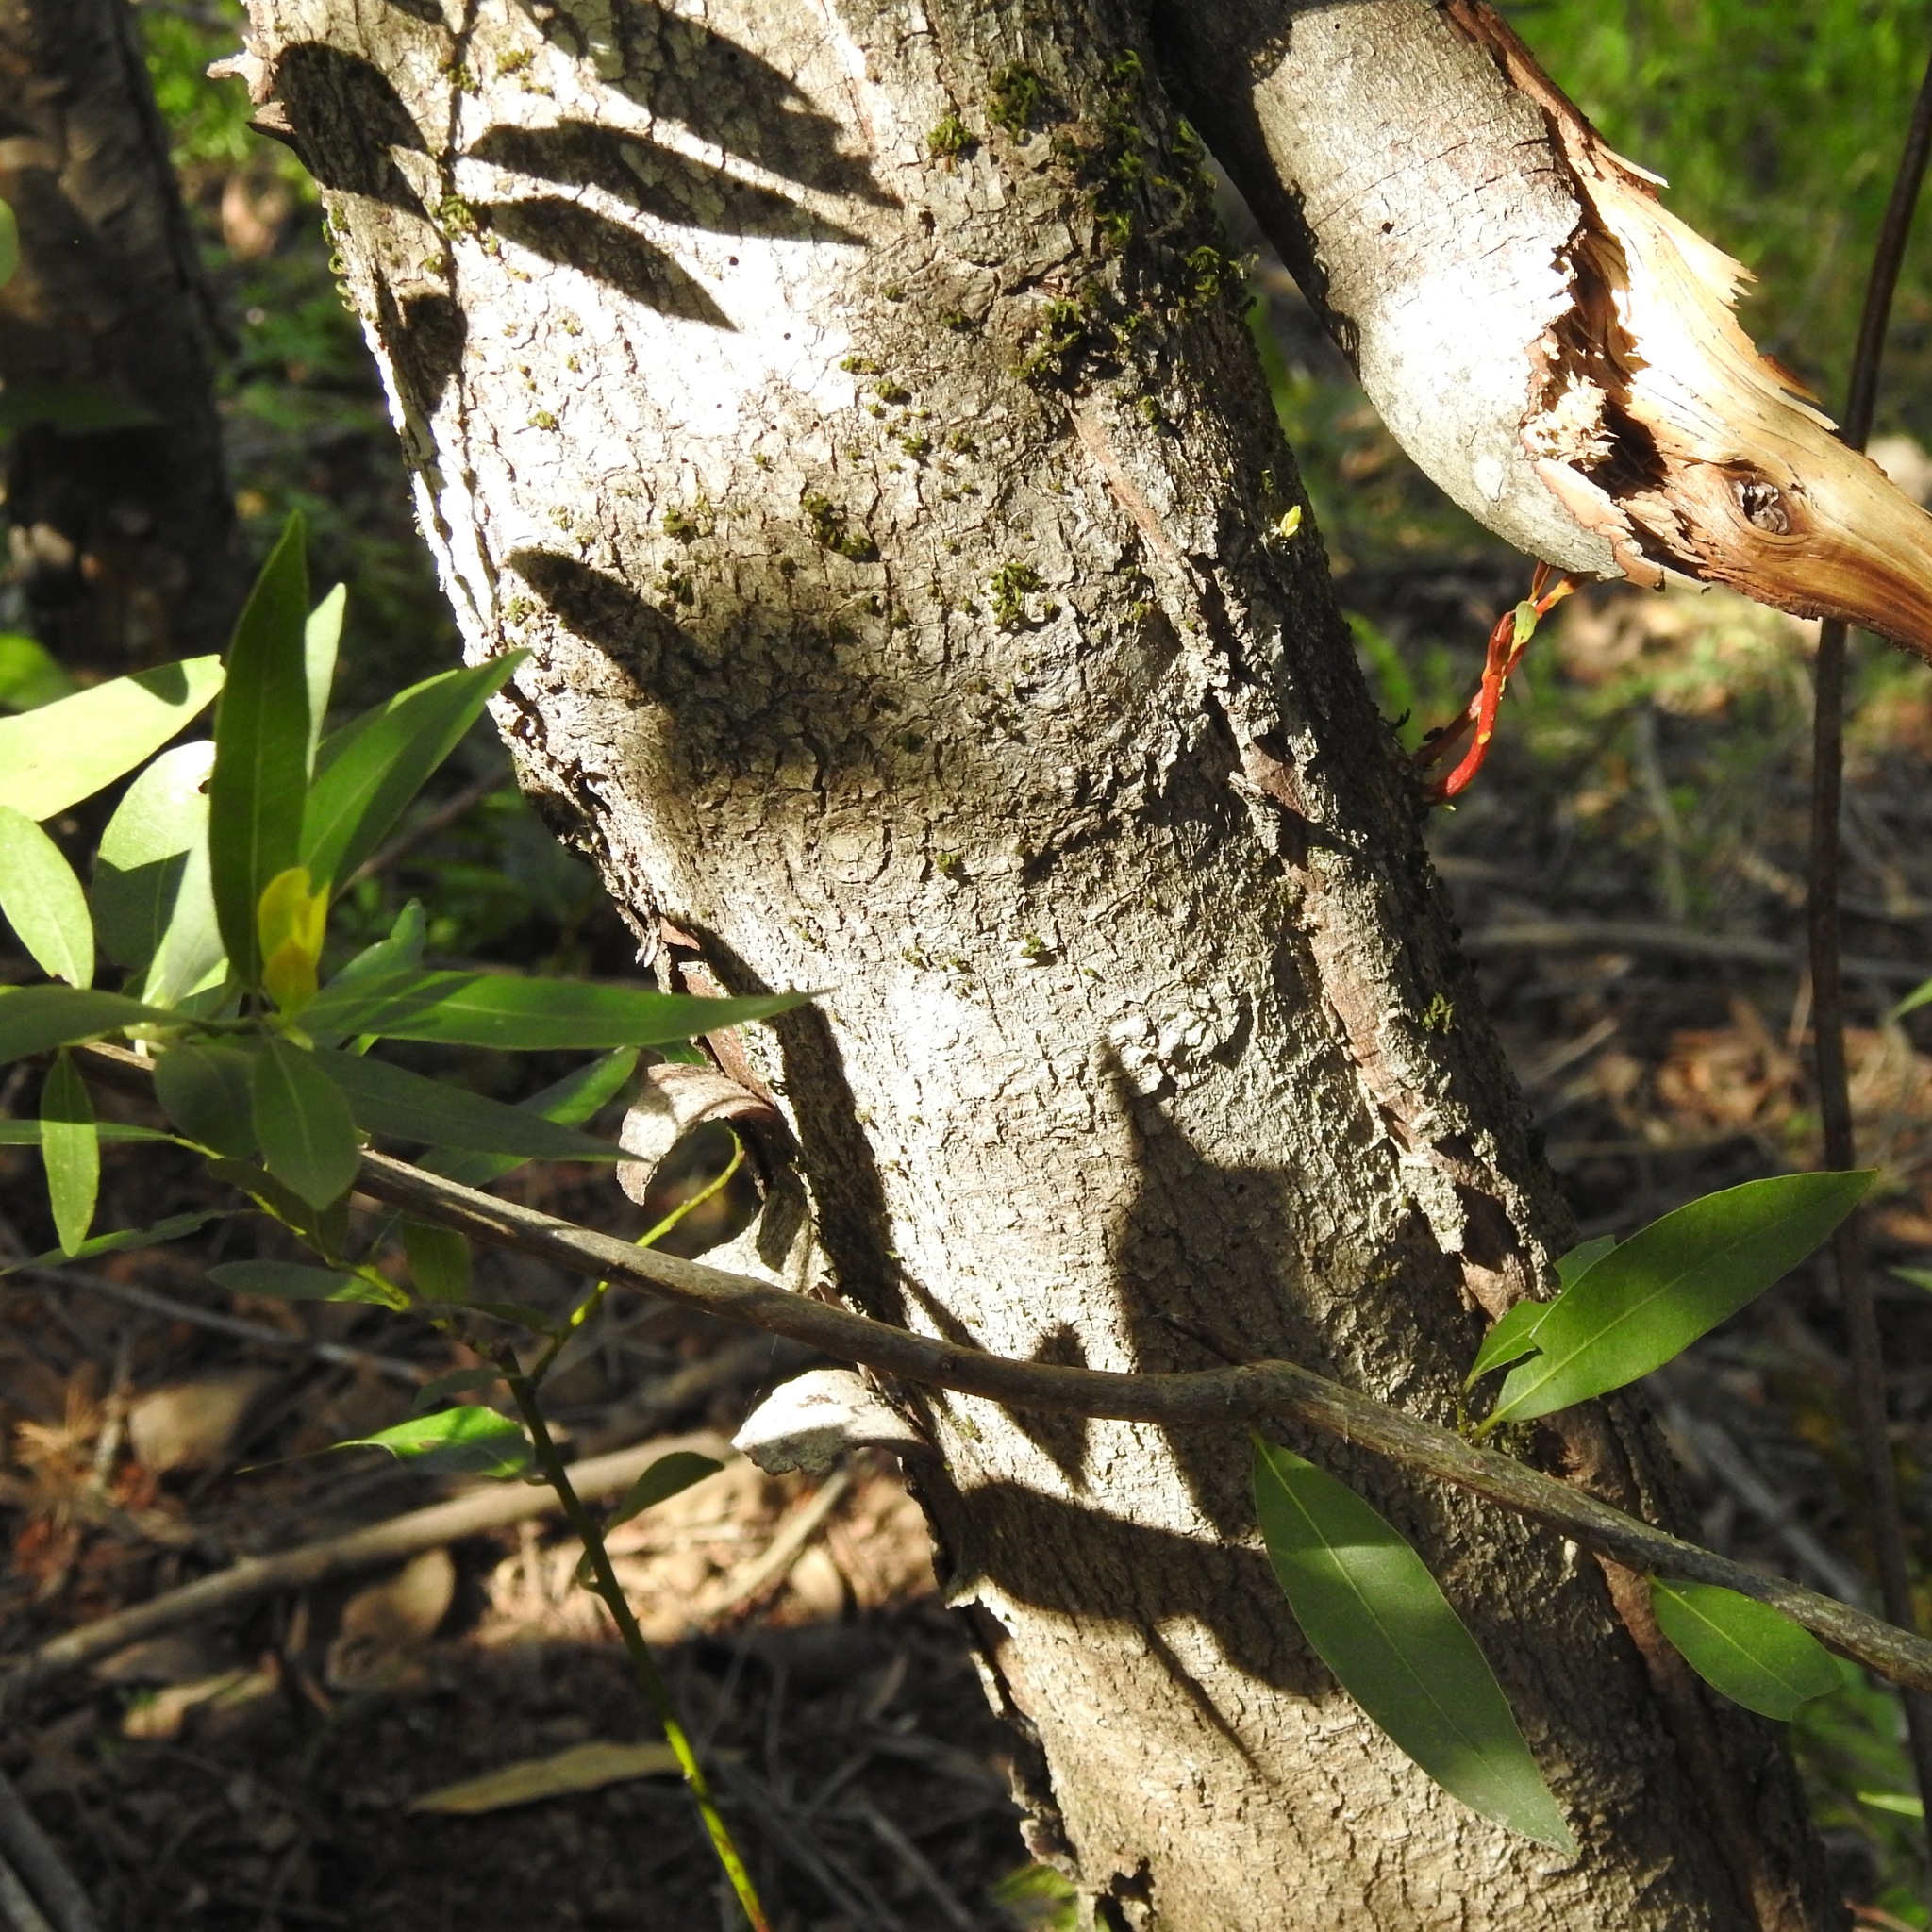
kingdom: Plantae
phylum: Tracheophyta
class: Magnoliopsida
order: Laurales
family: Lauraceae
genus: Umbellularia
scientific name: Umbellularia californica
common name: California bay
